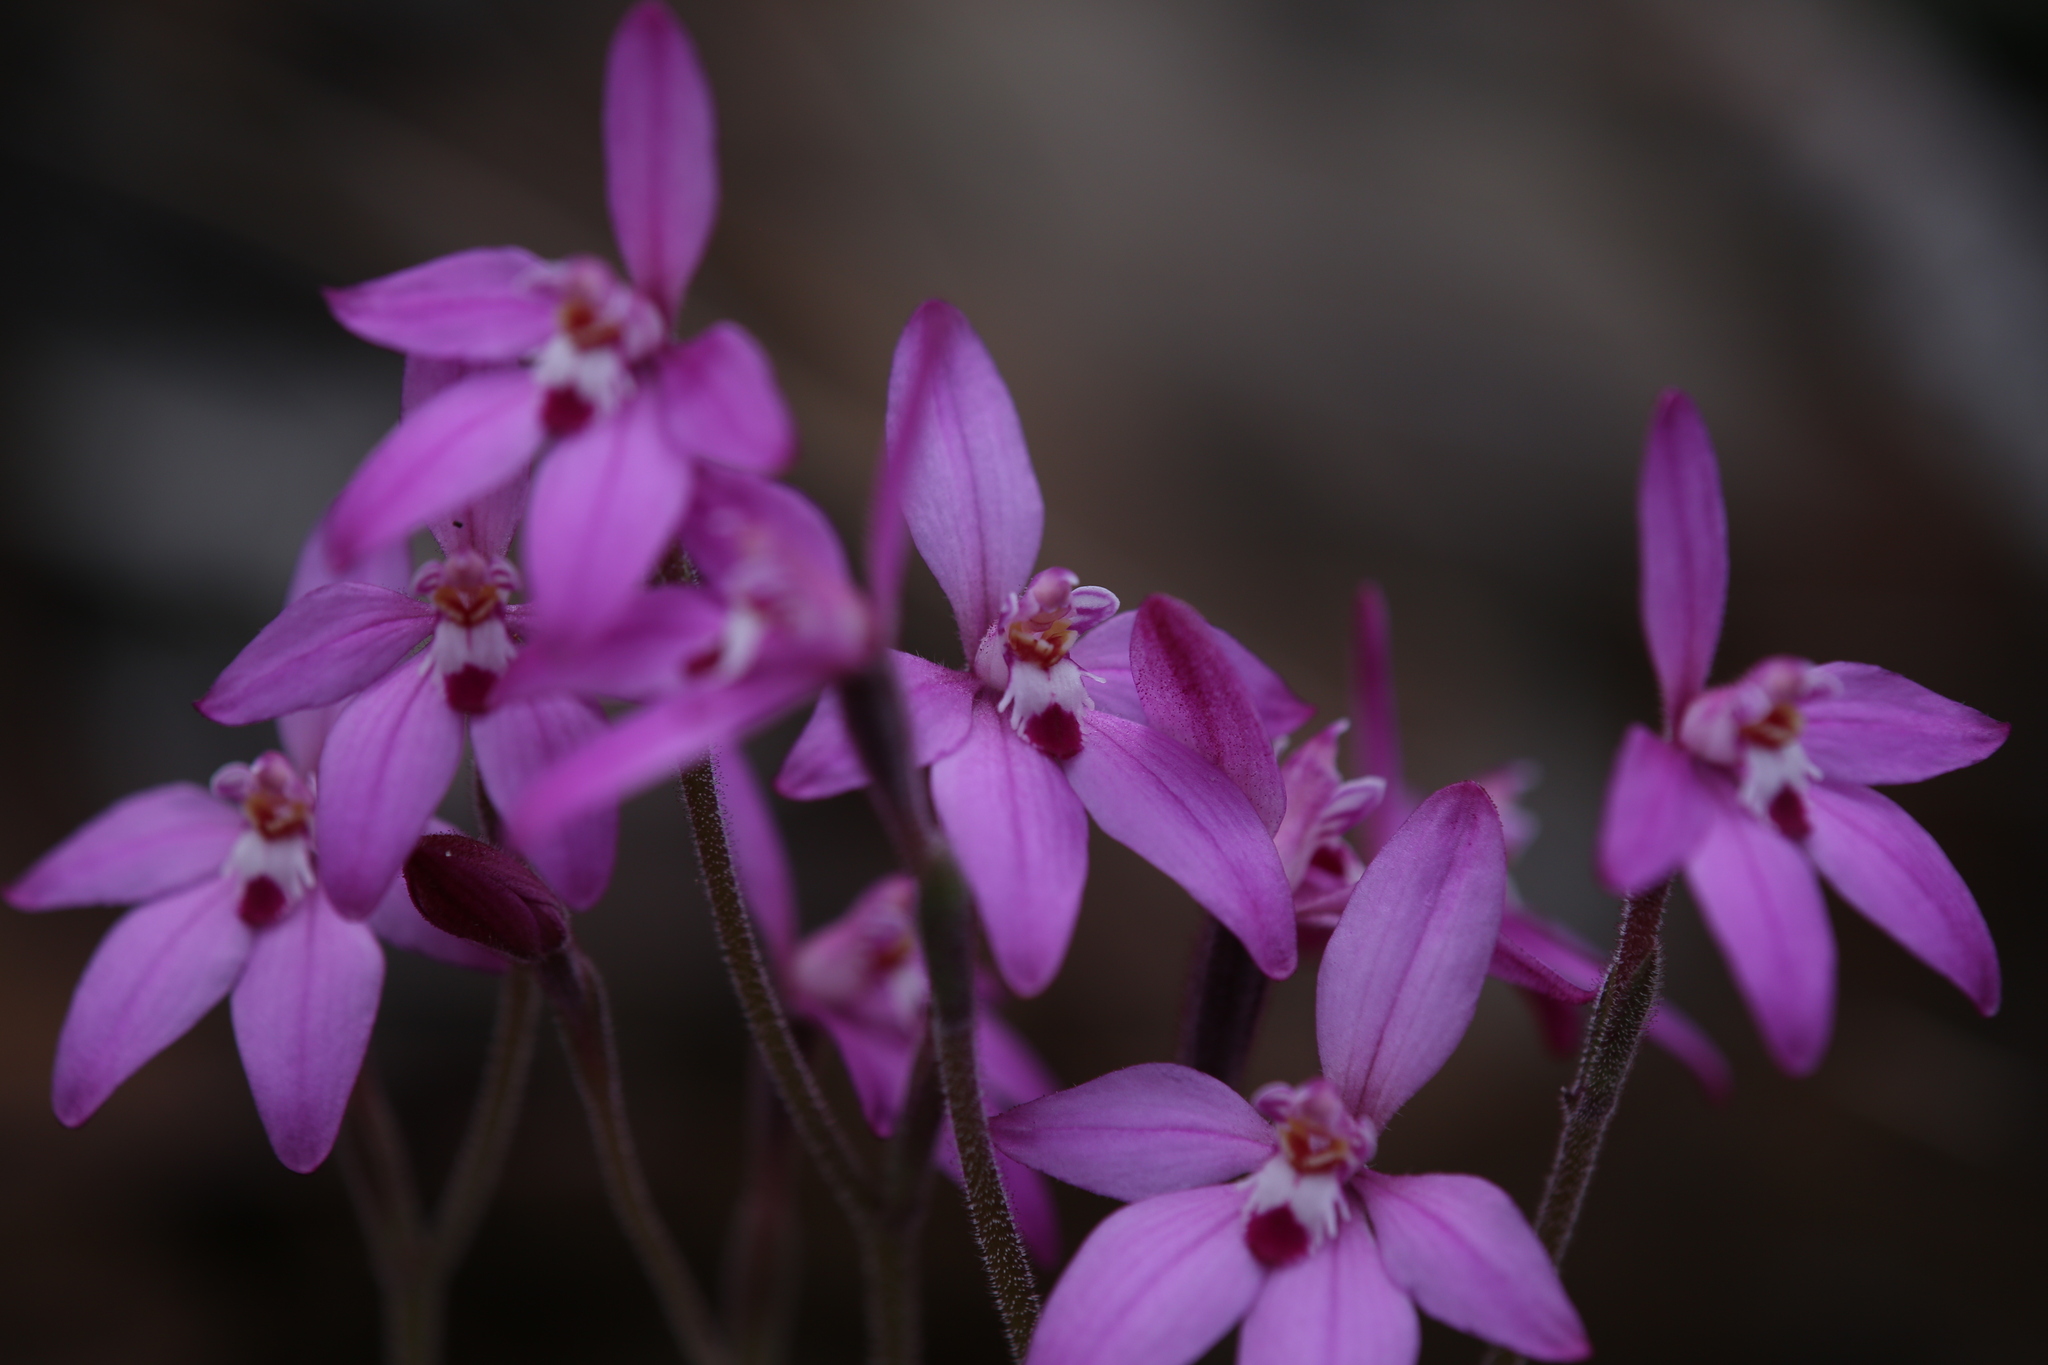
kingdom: Plantae
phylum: Tracheophyta
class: Liliopsida
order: Asparagales
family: Orchidaceae
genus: Caladenia
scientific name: Caladenia reptans
